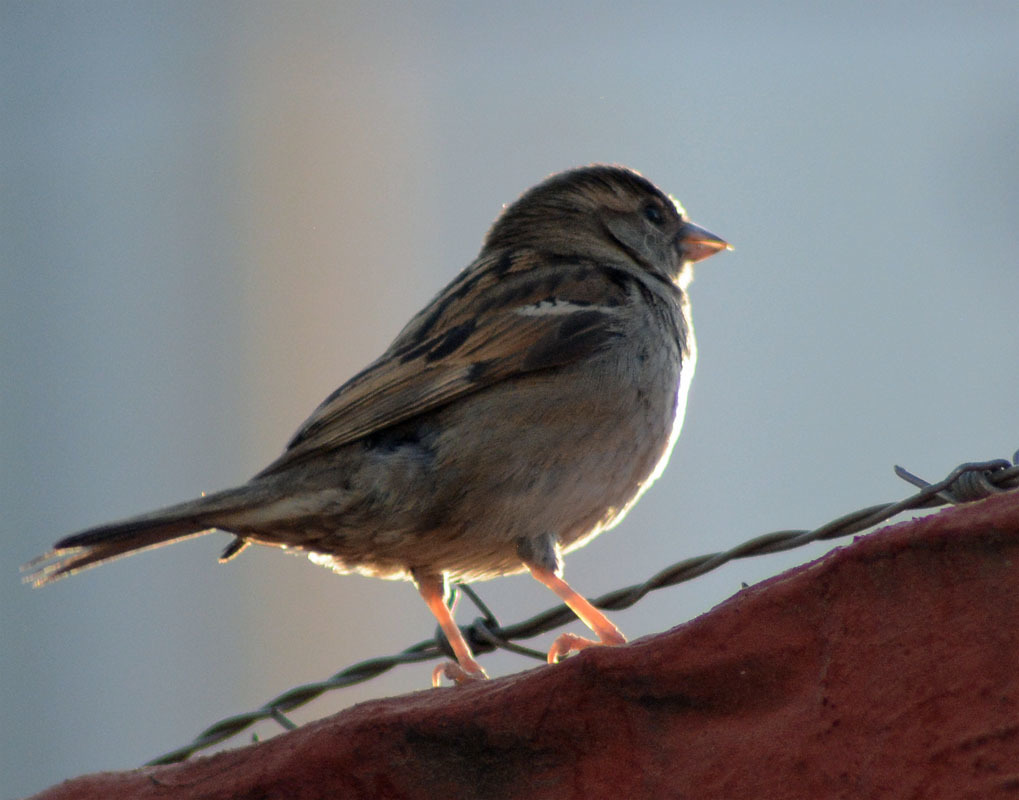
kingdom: Animalia
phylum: Chordata
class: Aves
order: Passeriformes
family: Passeridae
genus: Passer
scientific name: Passer domesticus
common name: House sparrow
